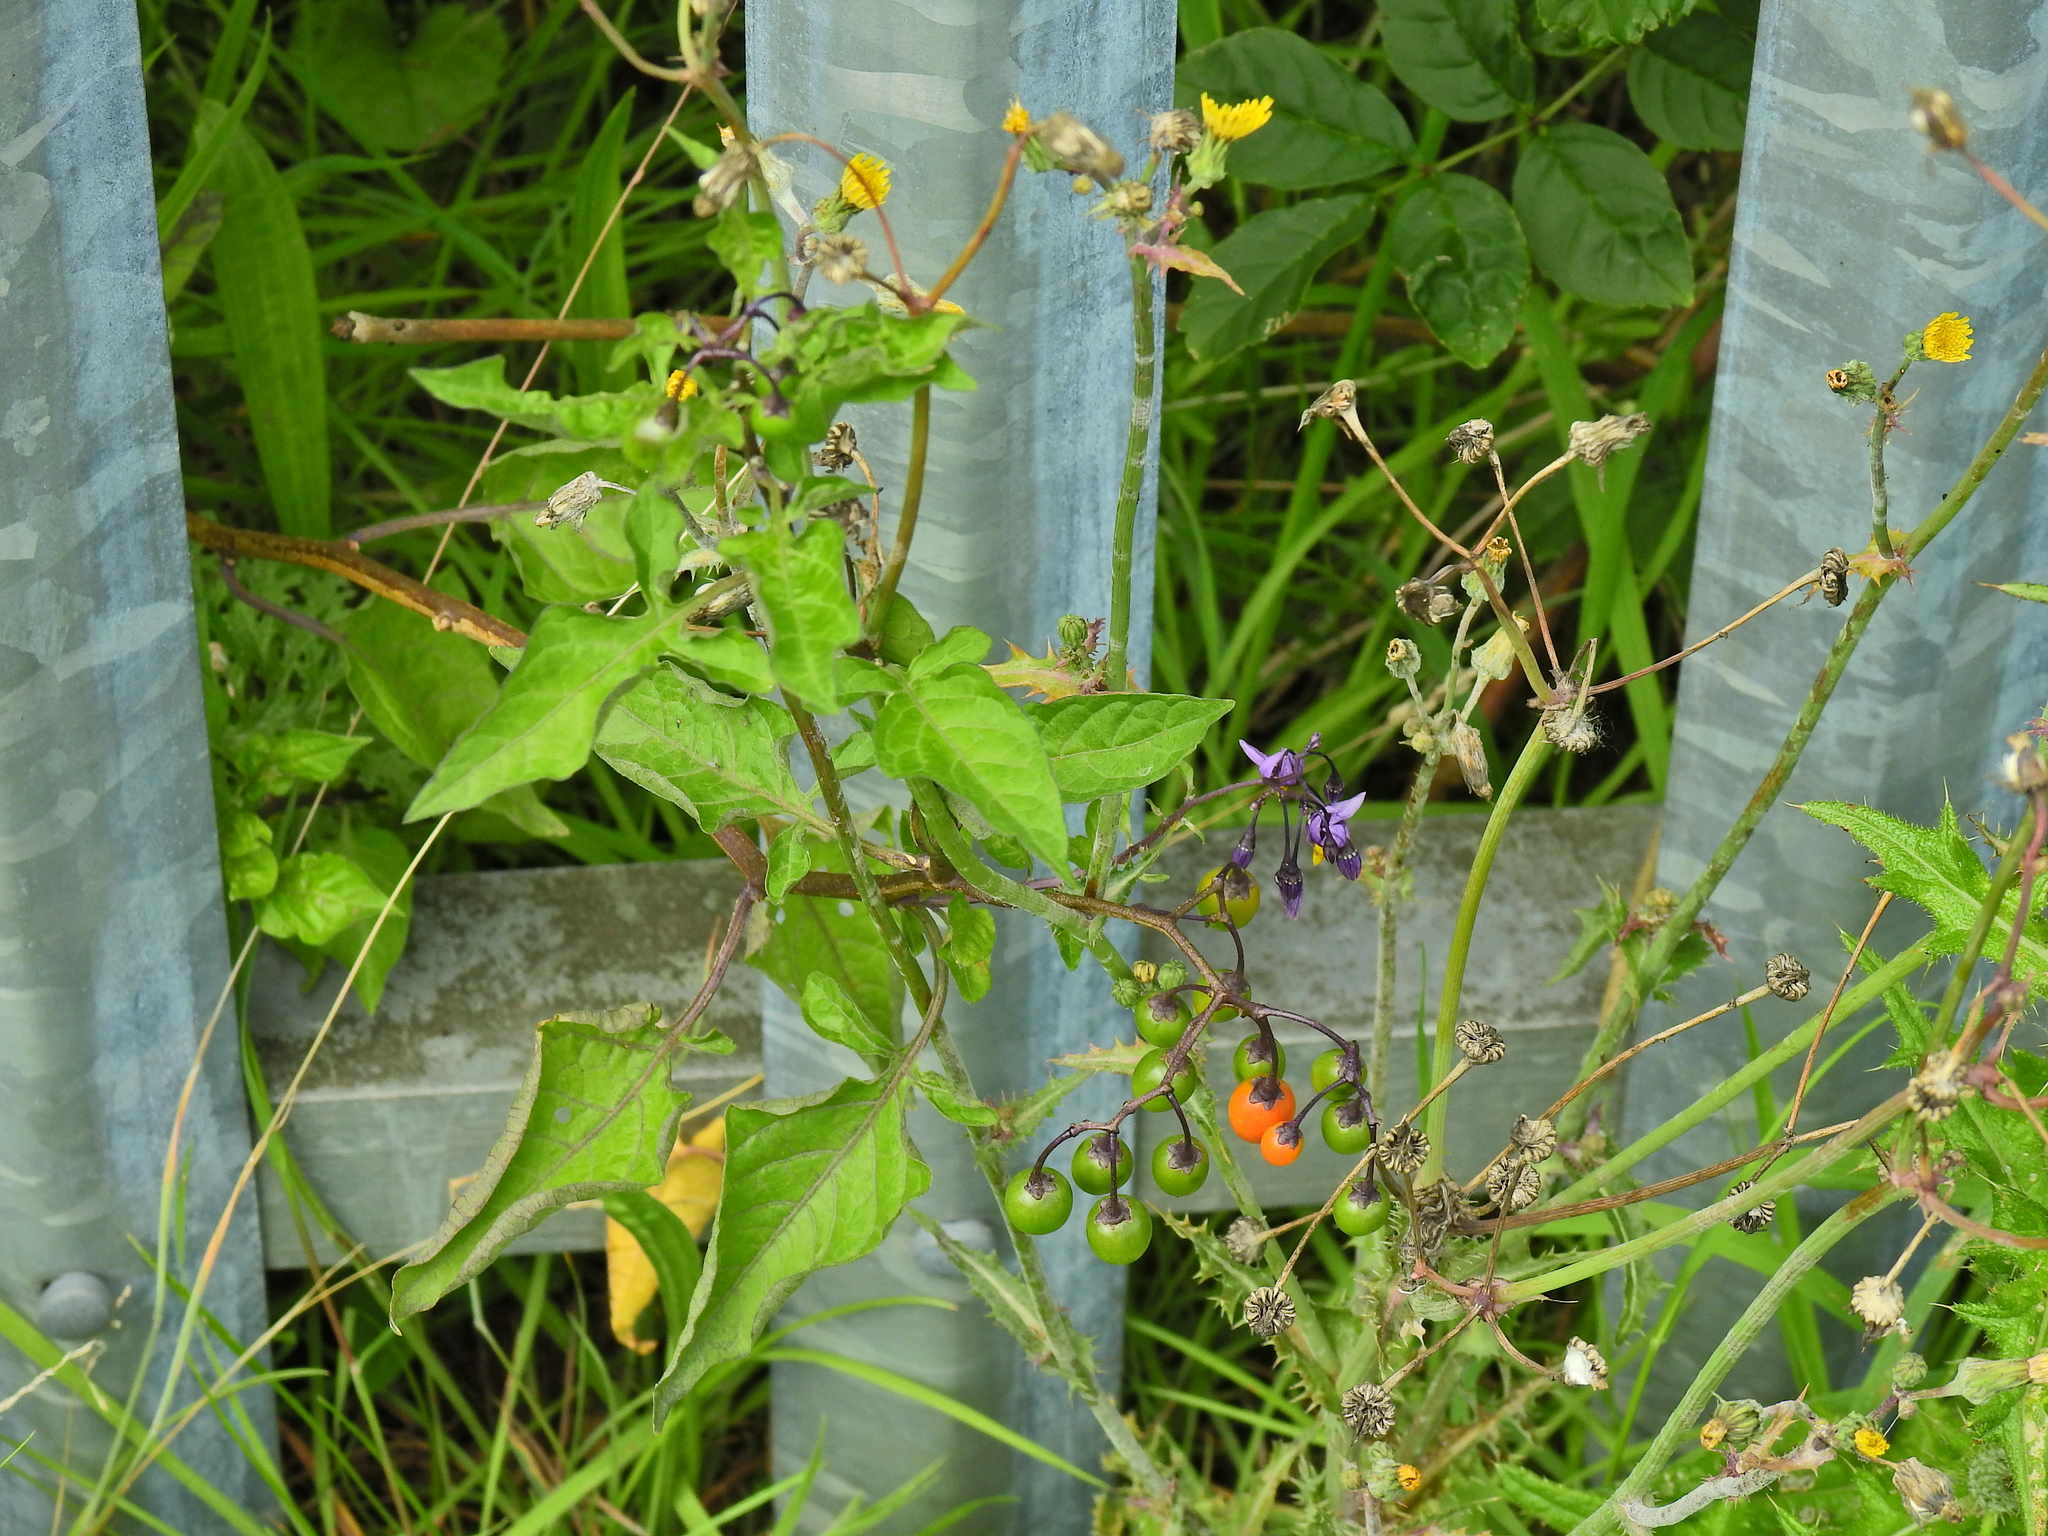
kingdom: Plantae
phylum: Tracheophyta
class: Magnoliopsida
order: Solanales
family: Solanaceae
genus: Solanum
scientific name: Solanum dulcamara
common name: Climbing nightshade
